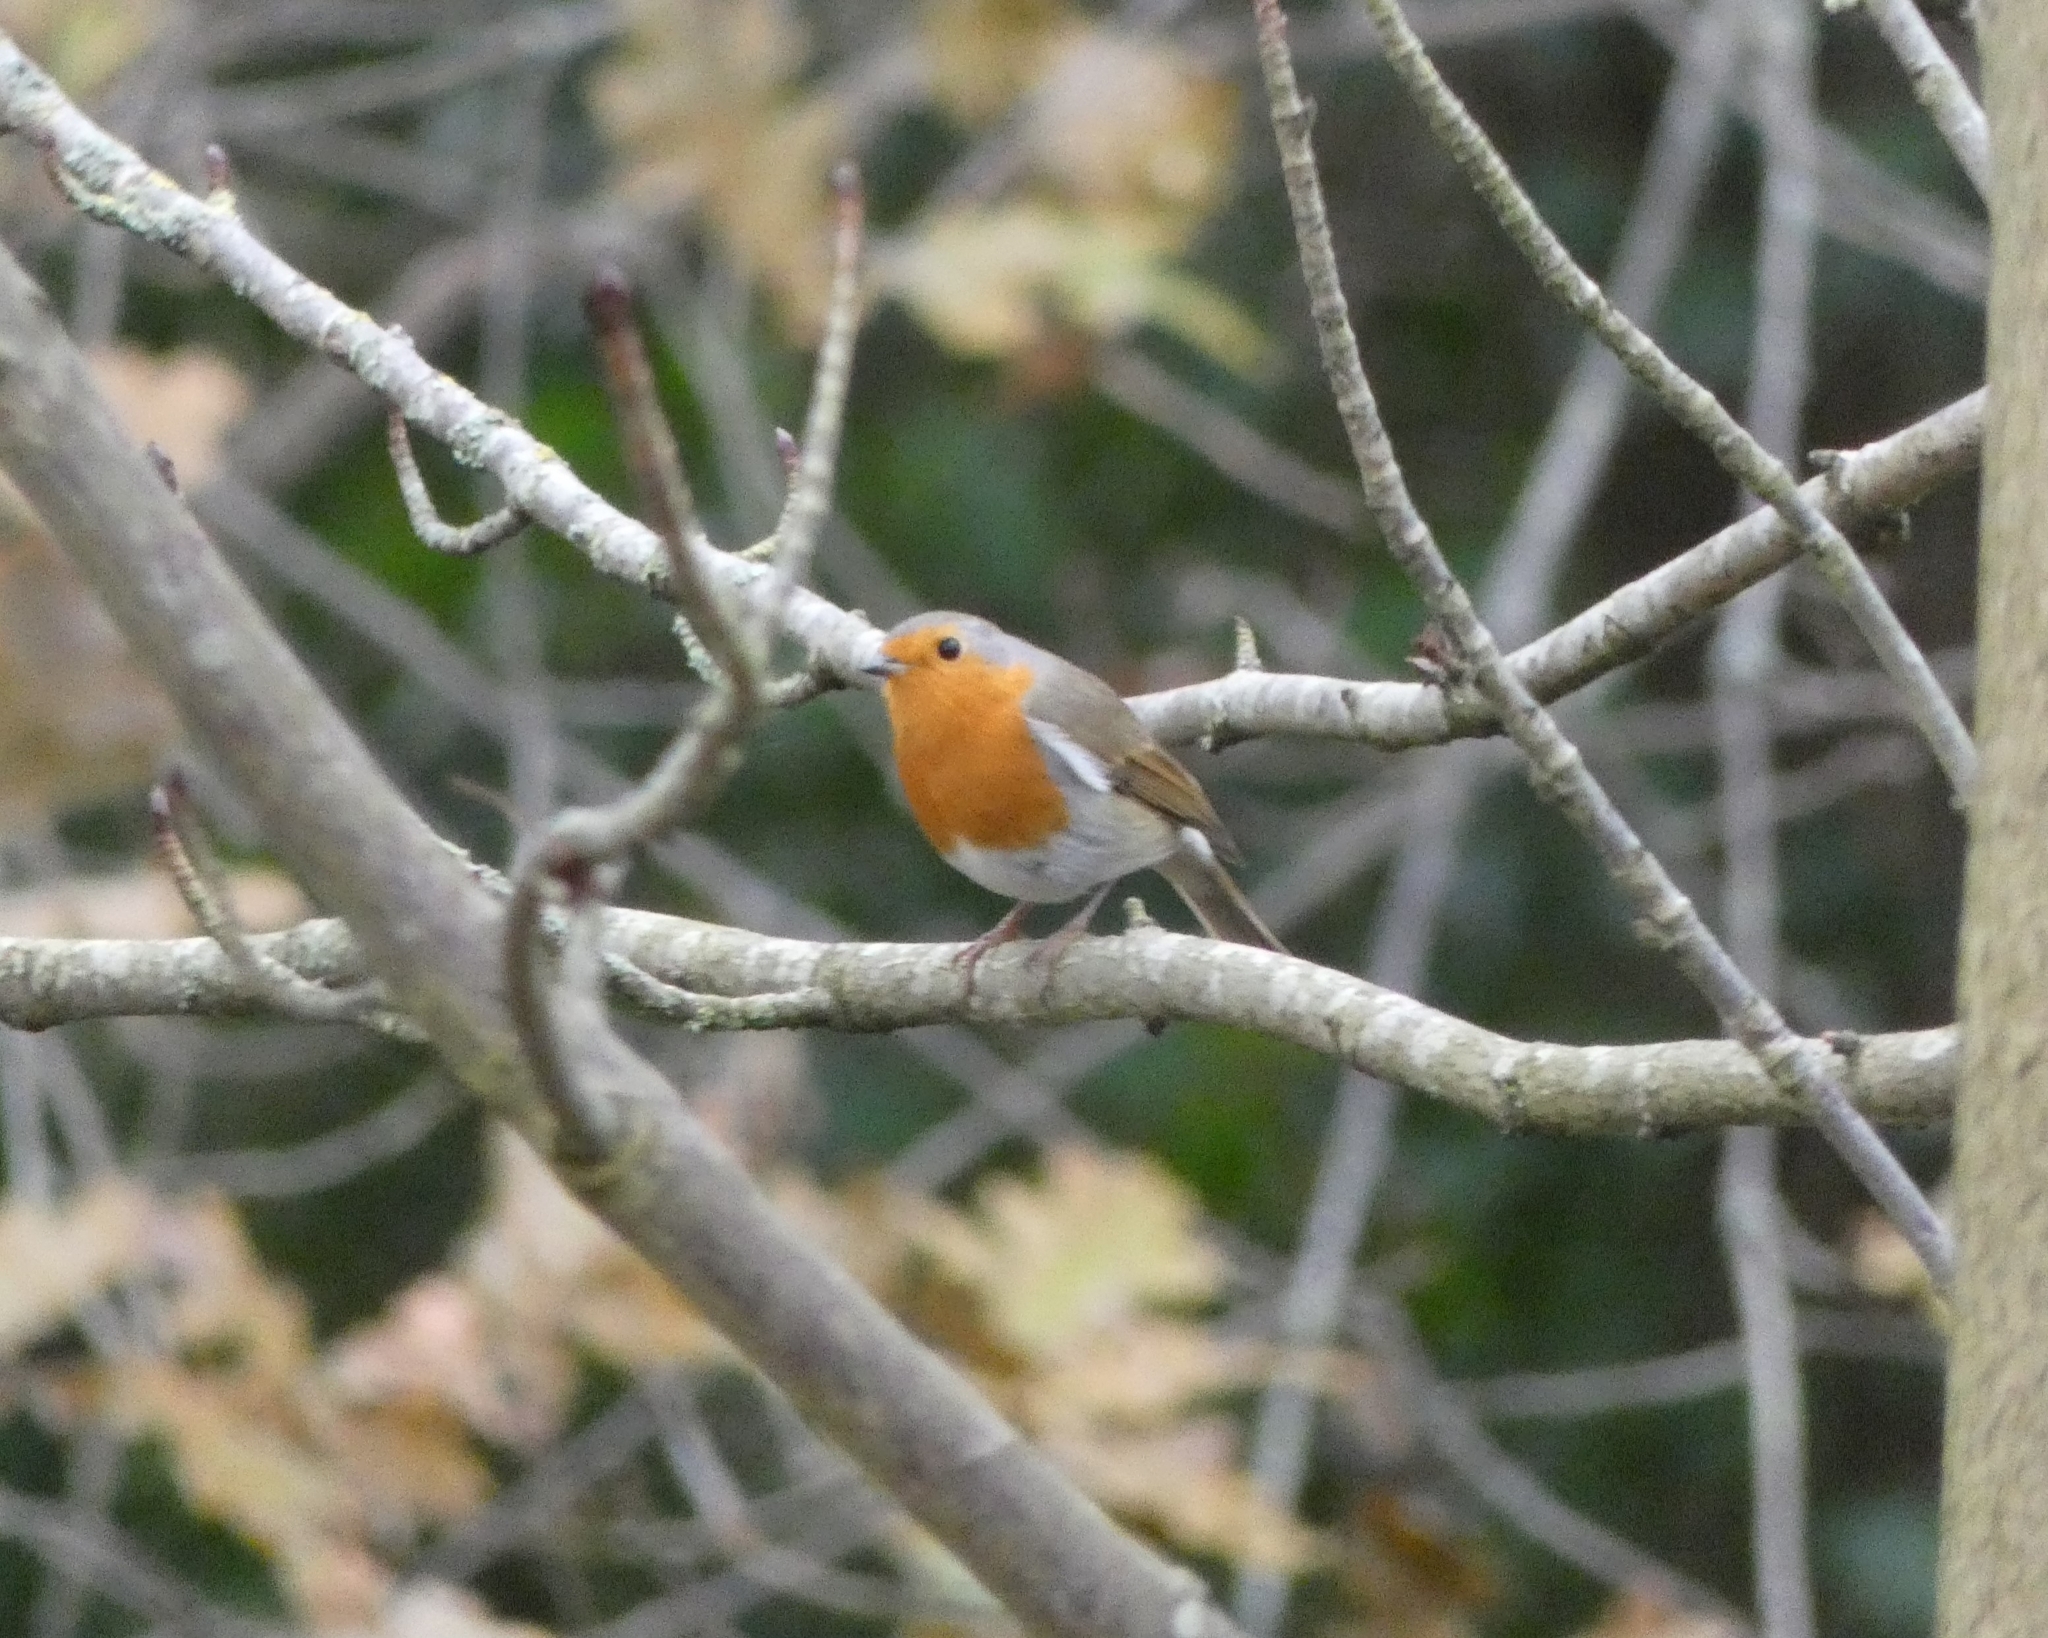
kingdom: Animalia
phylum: Chordata
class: Aves
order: Passeriformes
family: Muscicapidae
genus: Erithacus
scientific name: Erithacus rubecula
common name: European robin
